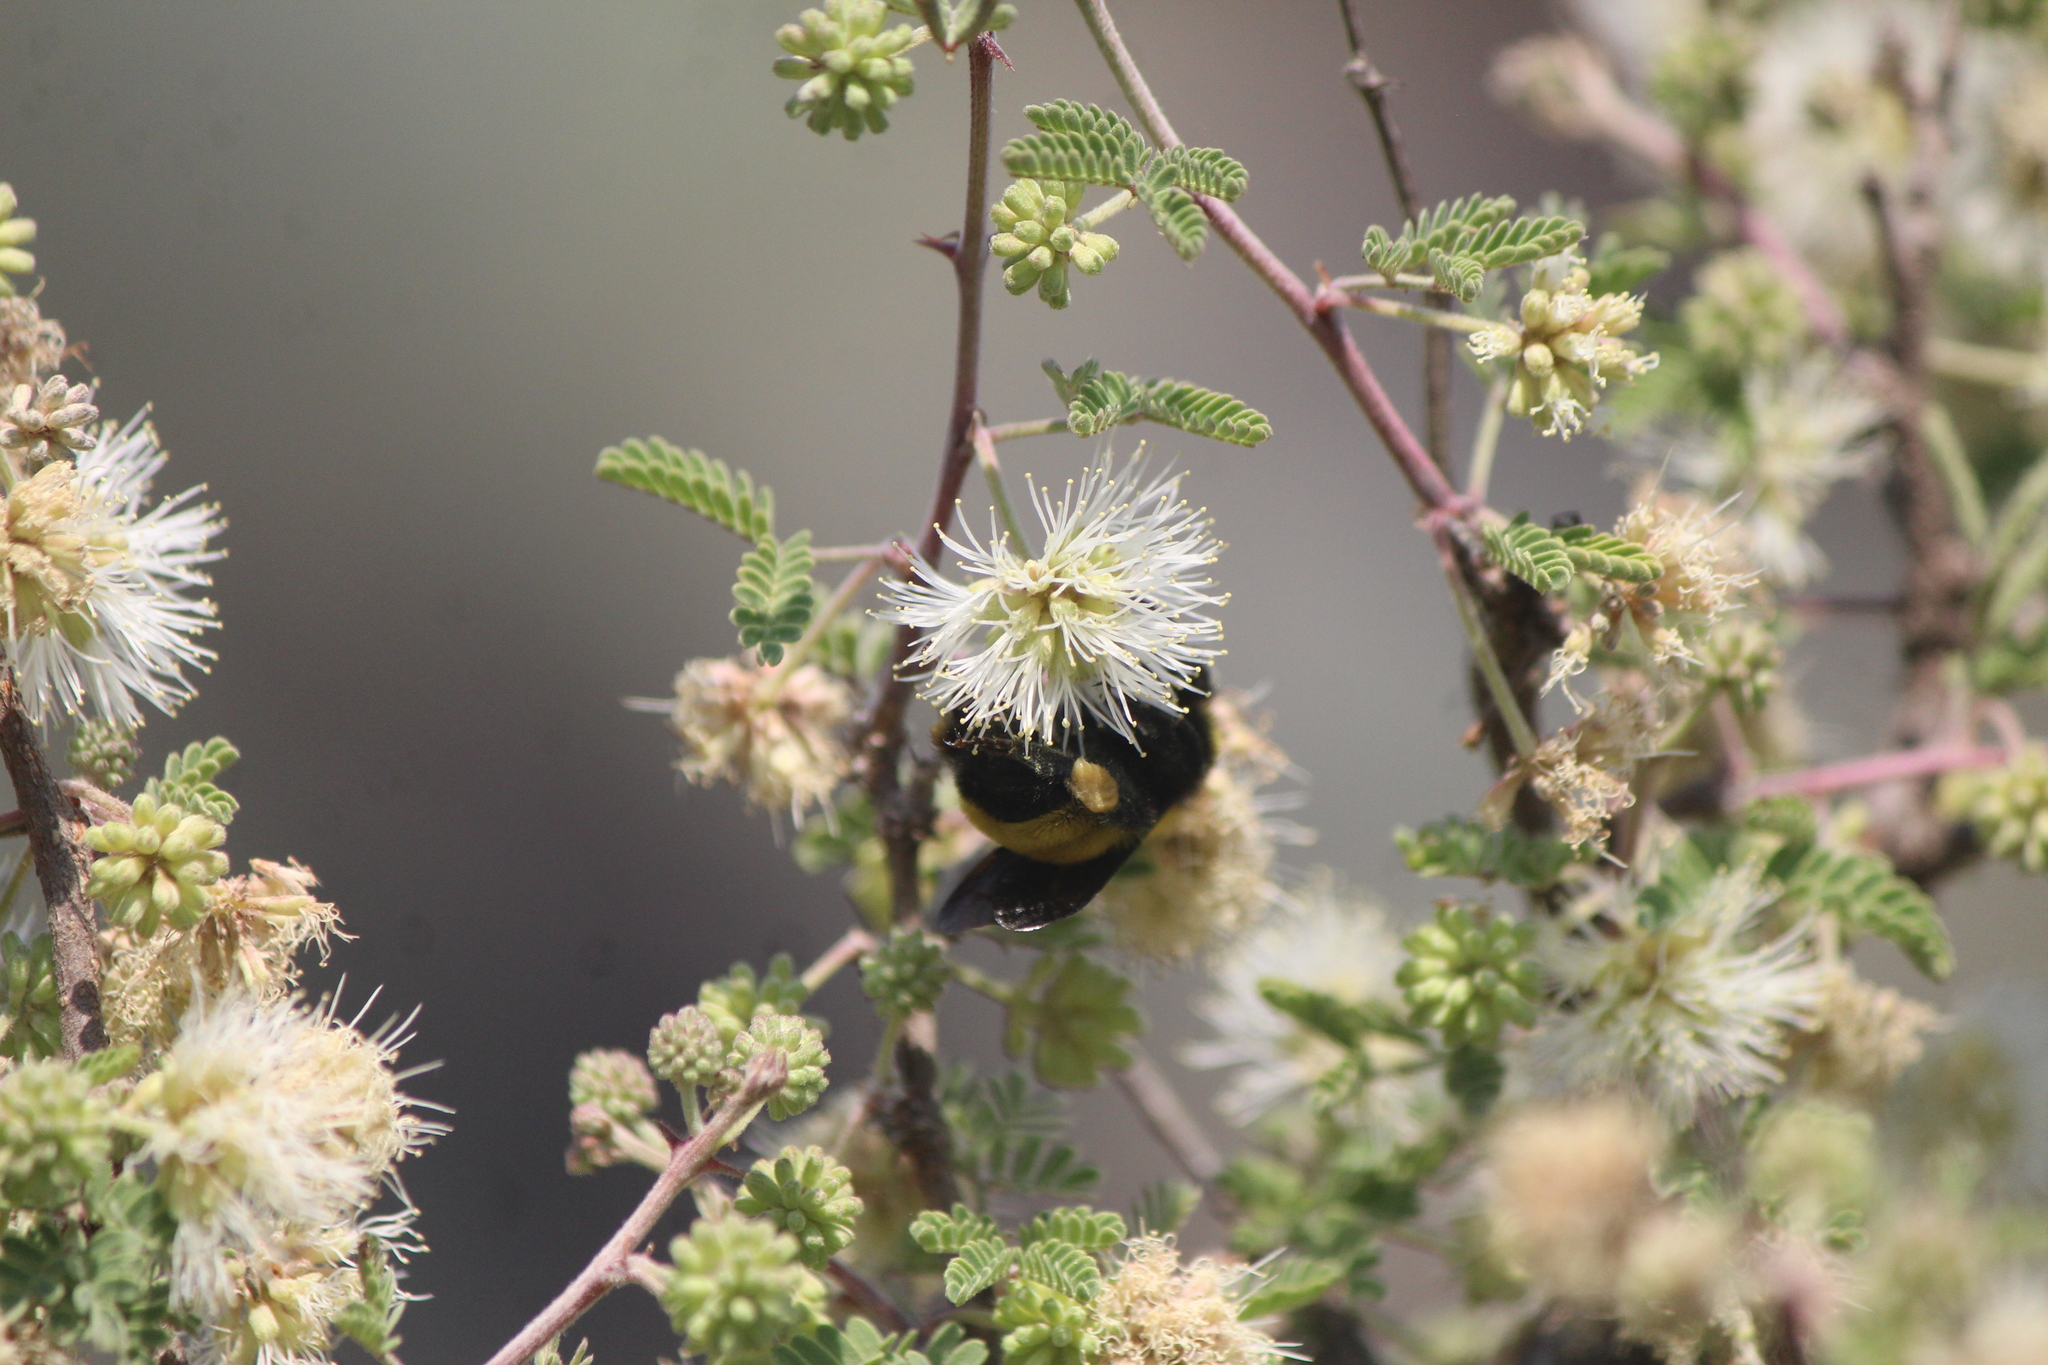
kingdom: Animalia
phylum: Arthropoda
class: Insecta
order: Hymenoptera
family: Apidae
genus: Bombus
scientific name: Bombus sonorus
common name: Sonoran bumble bee
